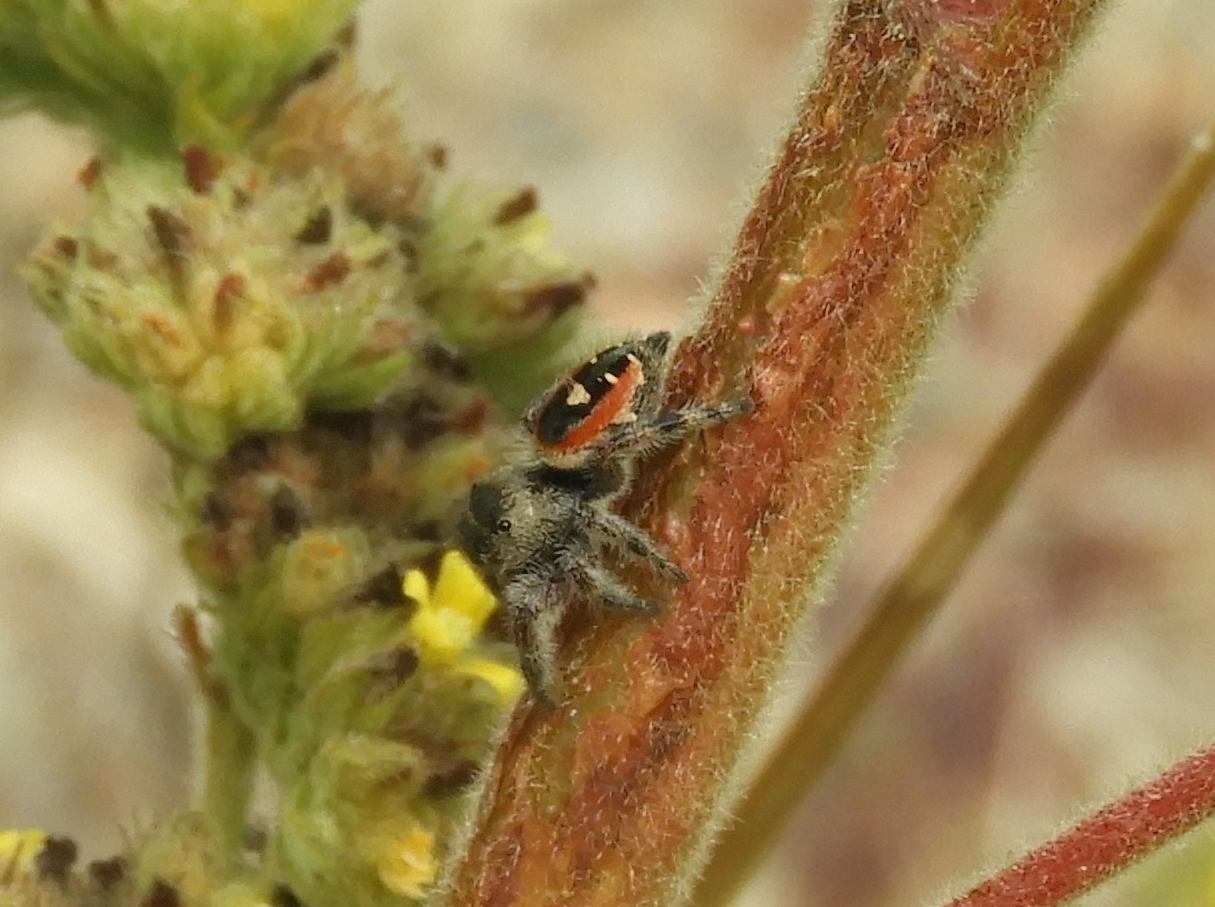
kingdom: Animalia
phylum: Arthropoda
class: Arachnida
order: Araneae
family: Salticidae
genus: Phidippus
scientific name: Phidippus californicus
